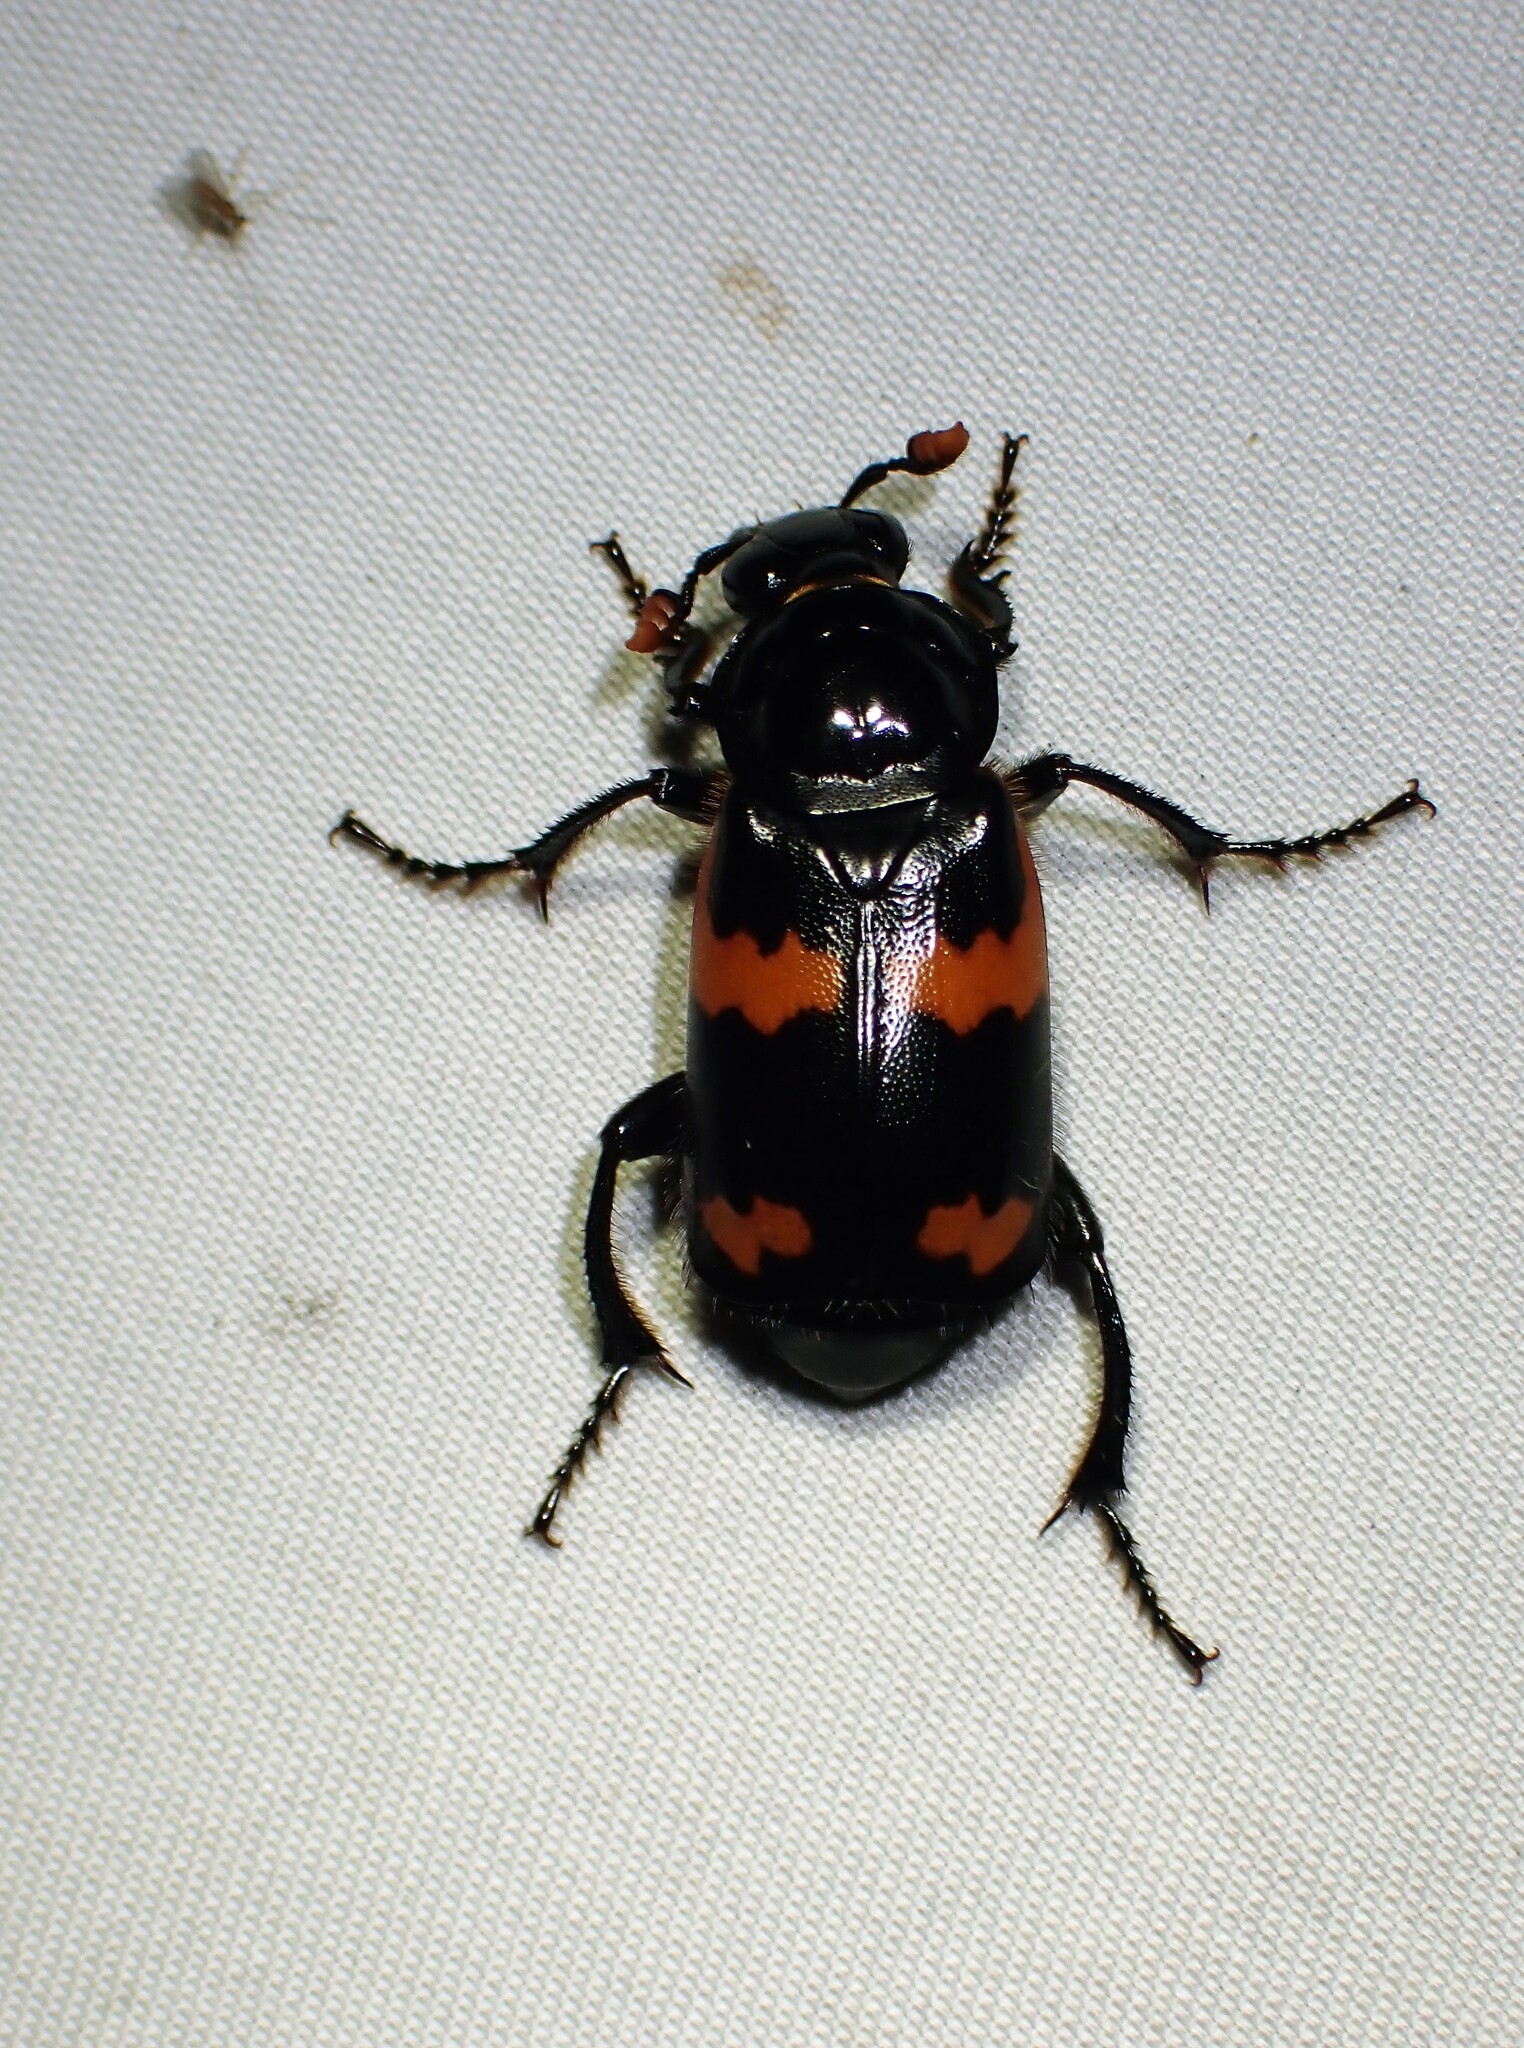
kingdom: Animalia
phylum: Arthropoda
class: Insecta
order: Coleoptera
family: Staphylinidae
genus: Nicrophorus
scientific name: Nicrophorus sayi
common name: Say's burying beetle
